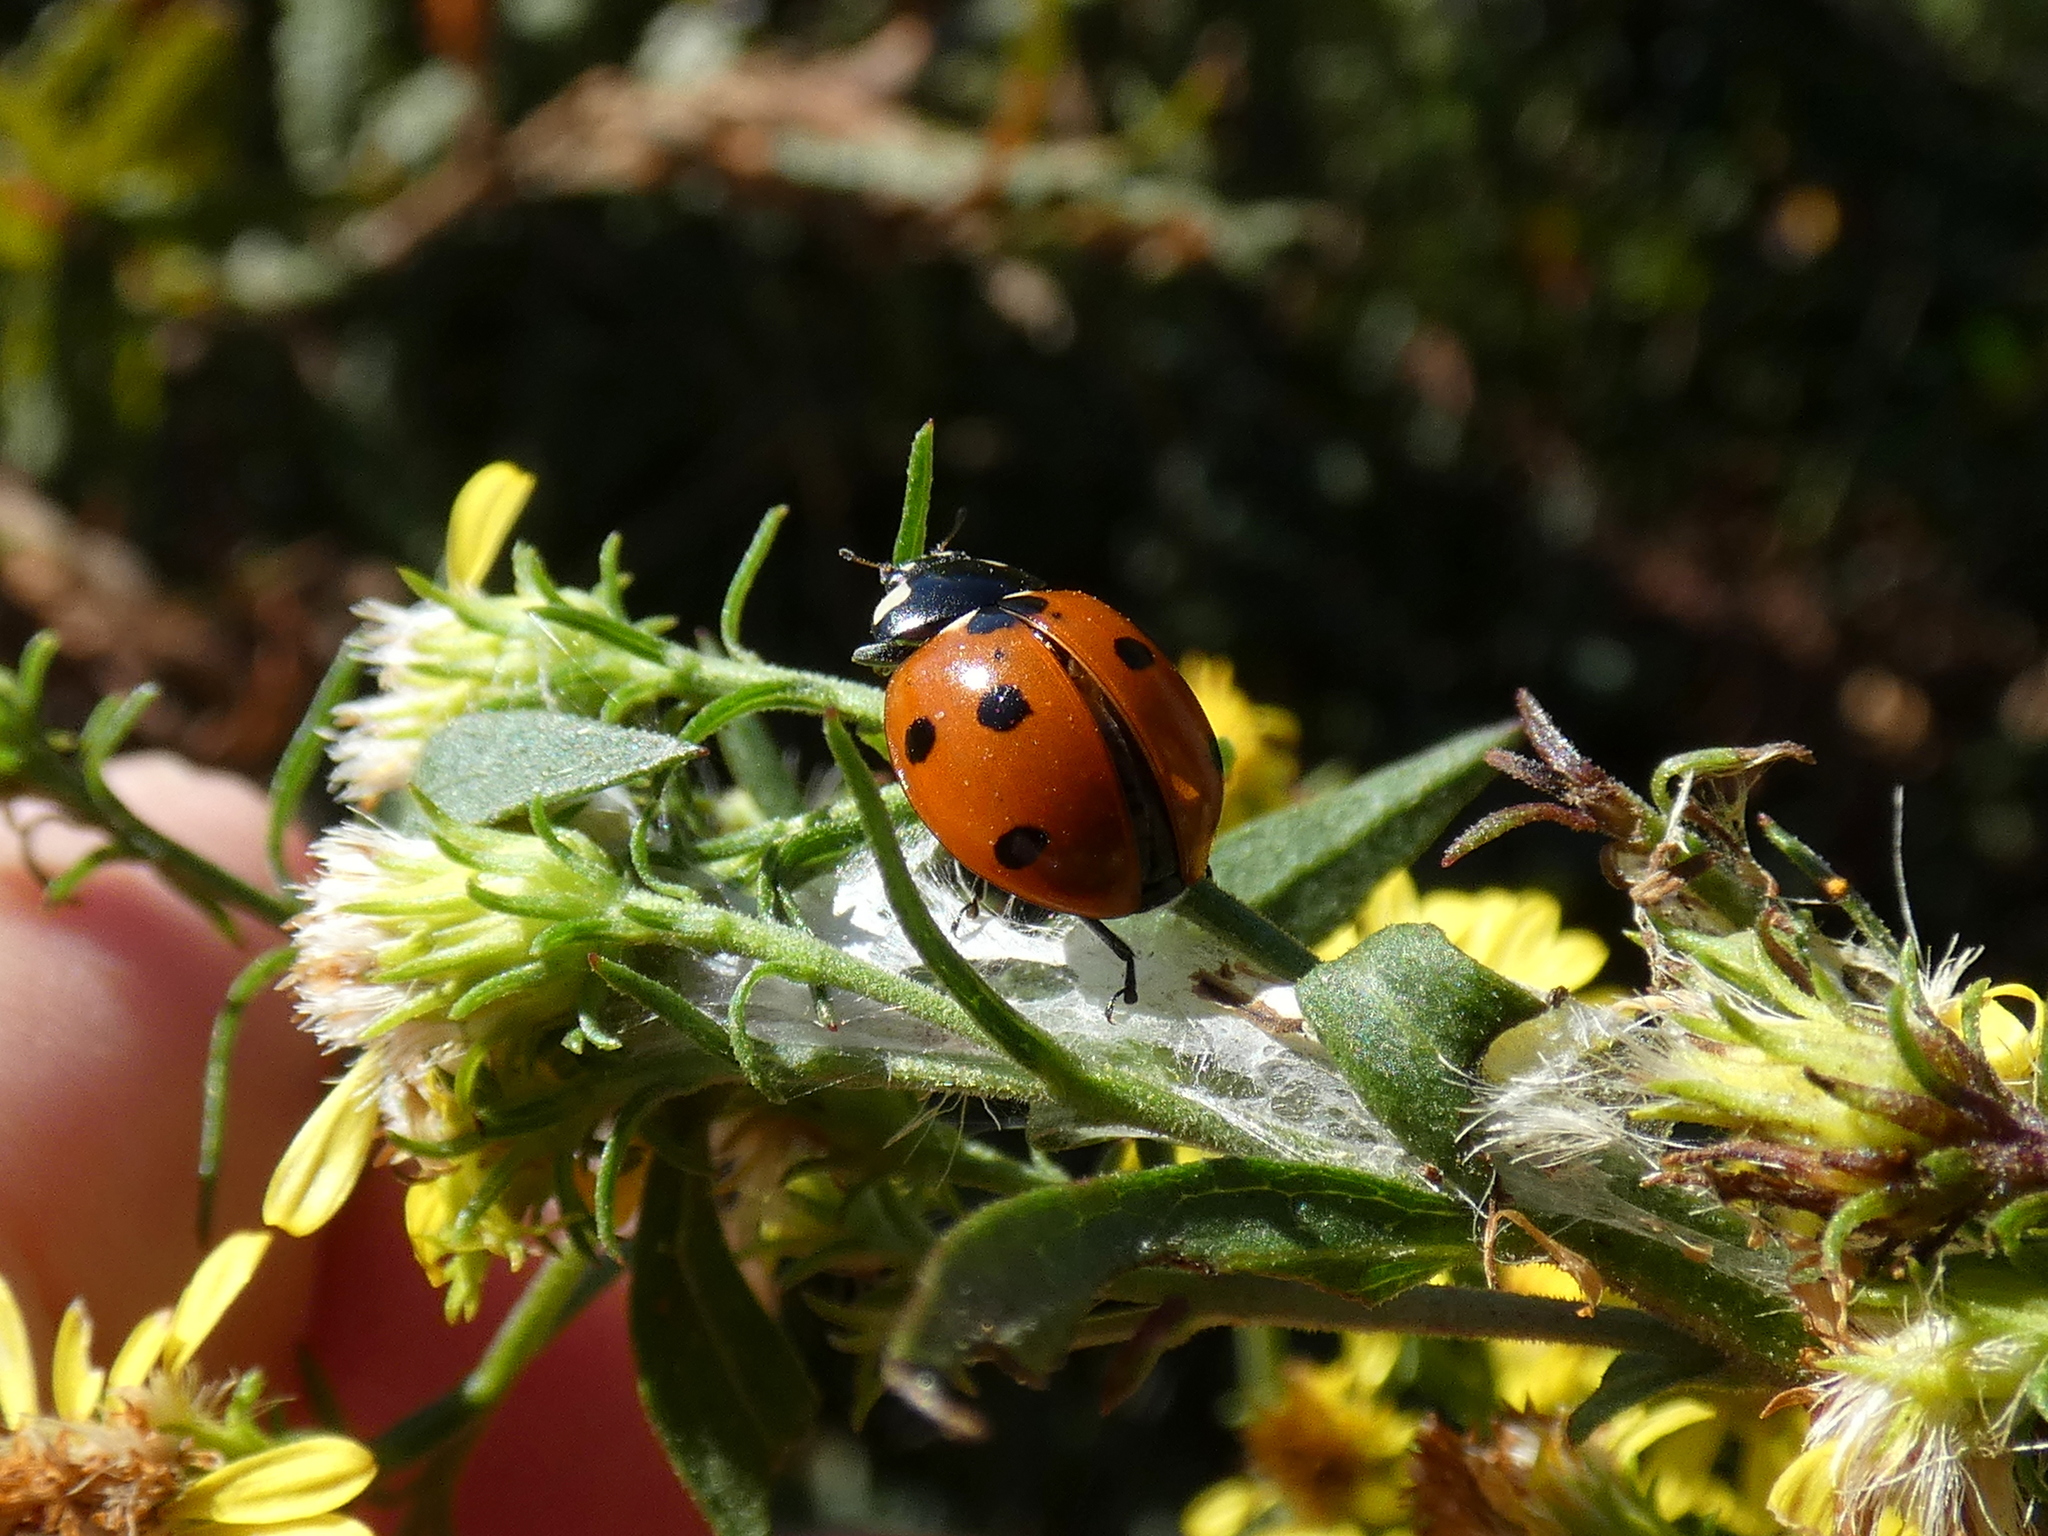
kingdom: Animalia
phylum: Arthropoda
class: Insecta
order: Coleoptera
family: Coccinellidae
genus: Coccinella
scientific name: Coccinella septempunctata
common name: Sevenspotted lady beetle
